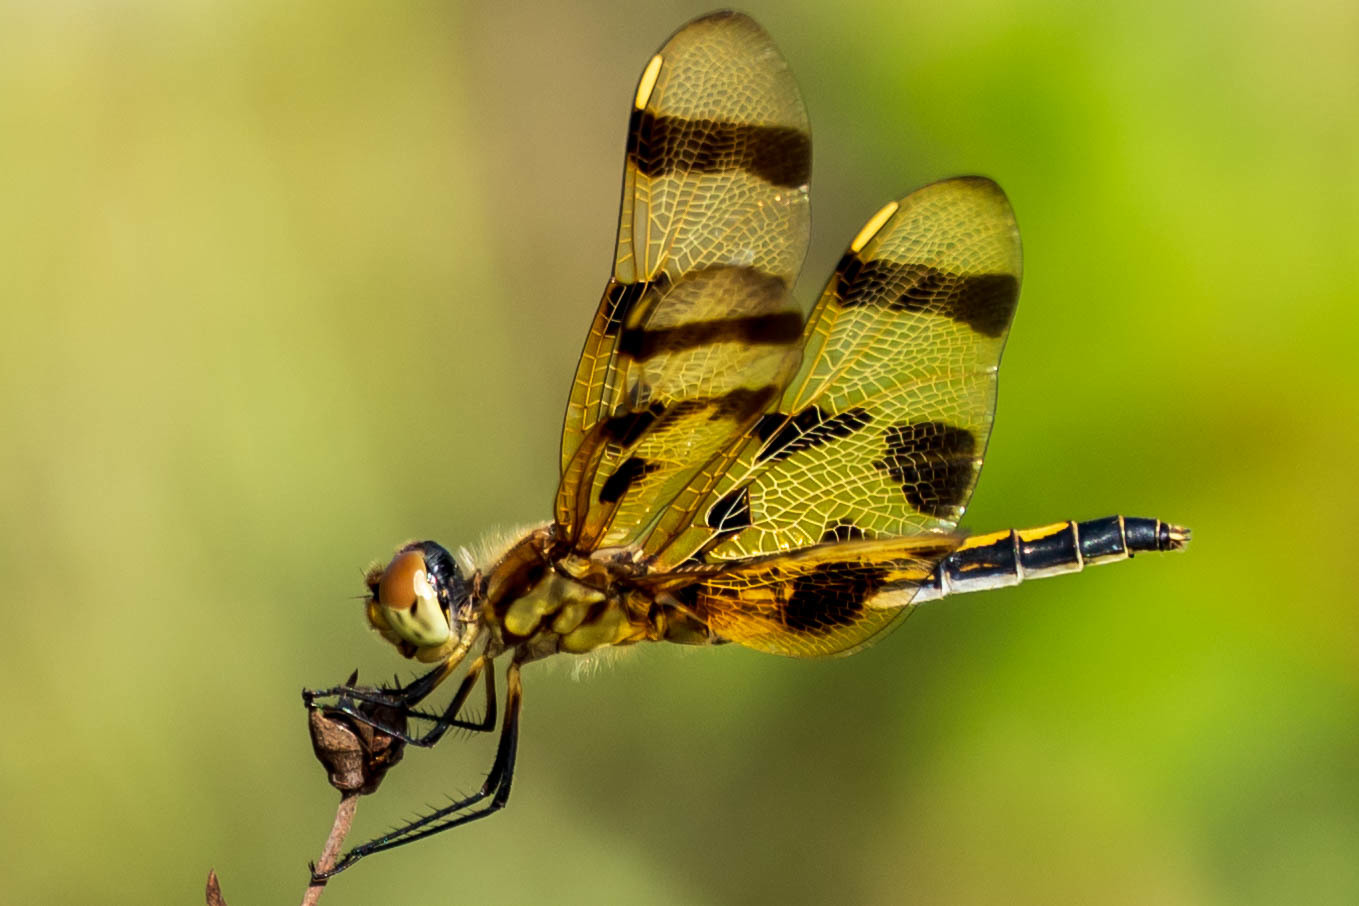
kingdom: Animalia
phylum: Arthropoda
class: Insecta
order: Odonata
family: Libellulidae
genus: Celithemis
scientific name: Celithemis eponina
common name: Halloween pennant
